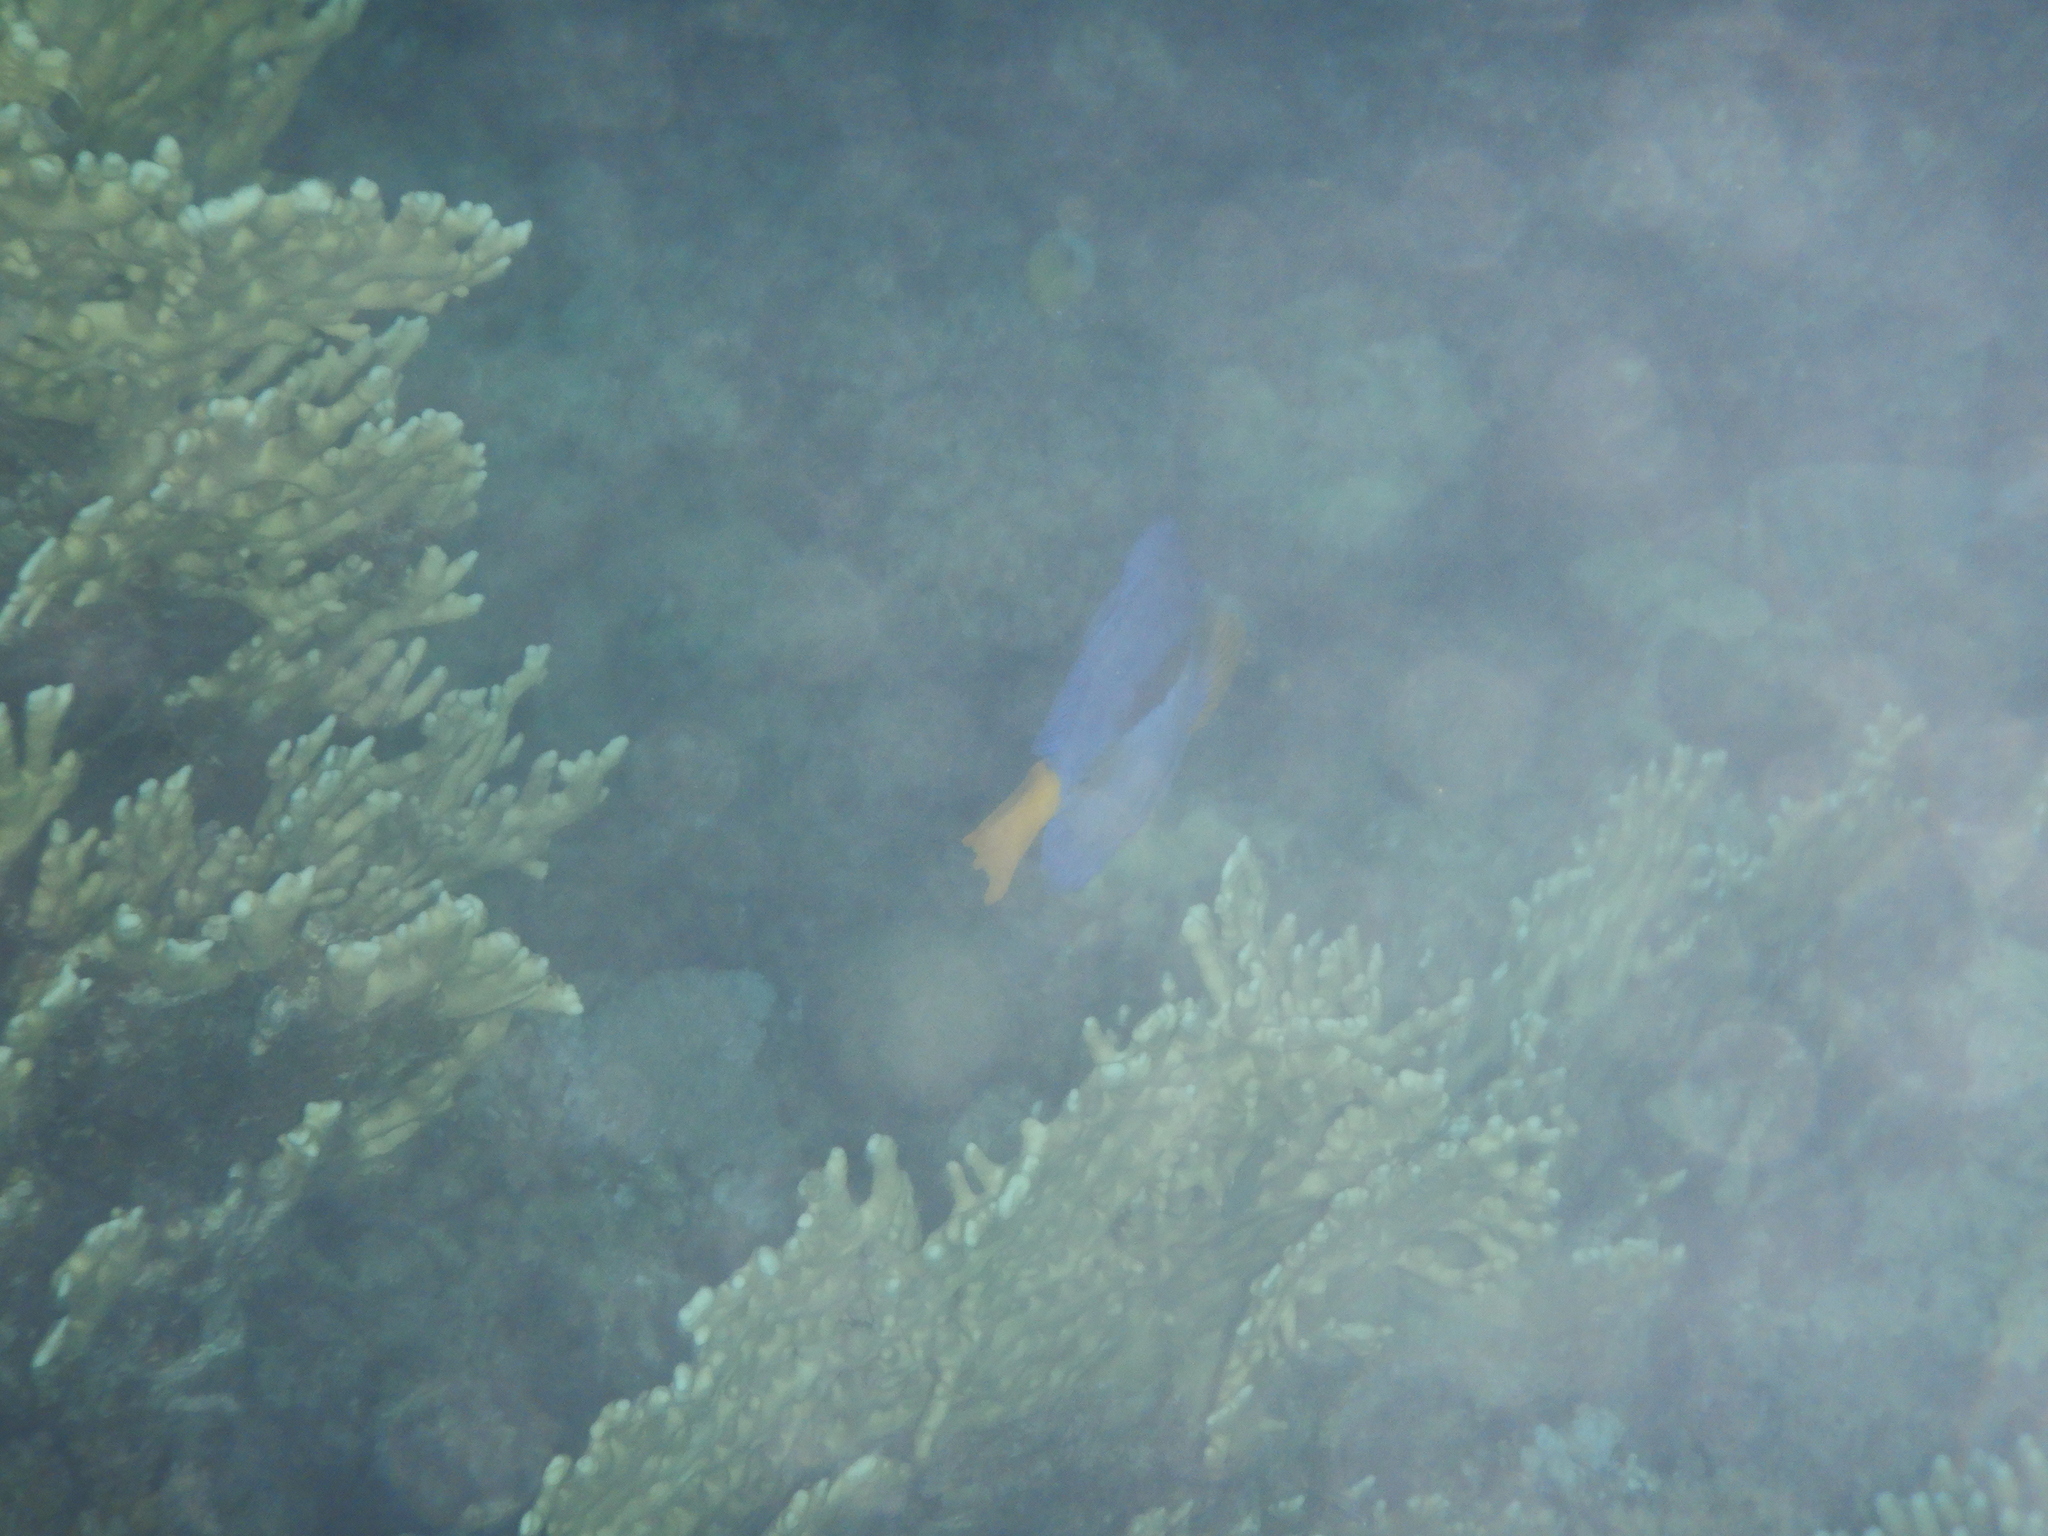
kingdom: Animalia
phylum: Chordata
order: Perciformes
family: Acanthuridae
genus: Zebrasoma
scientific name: Zebrasoma xanthurum
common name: Purple tang
